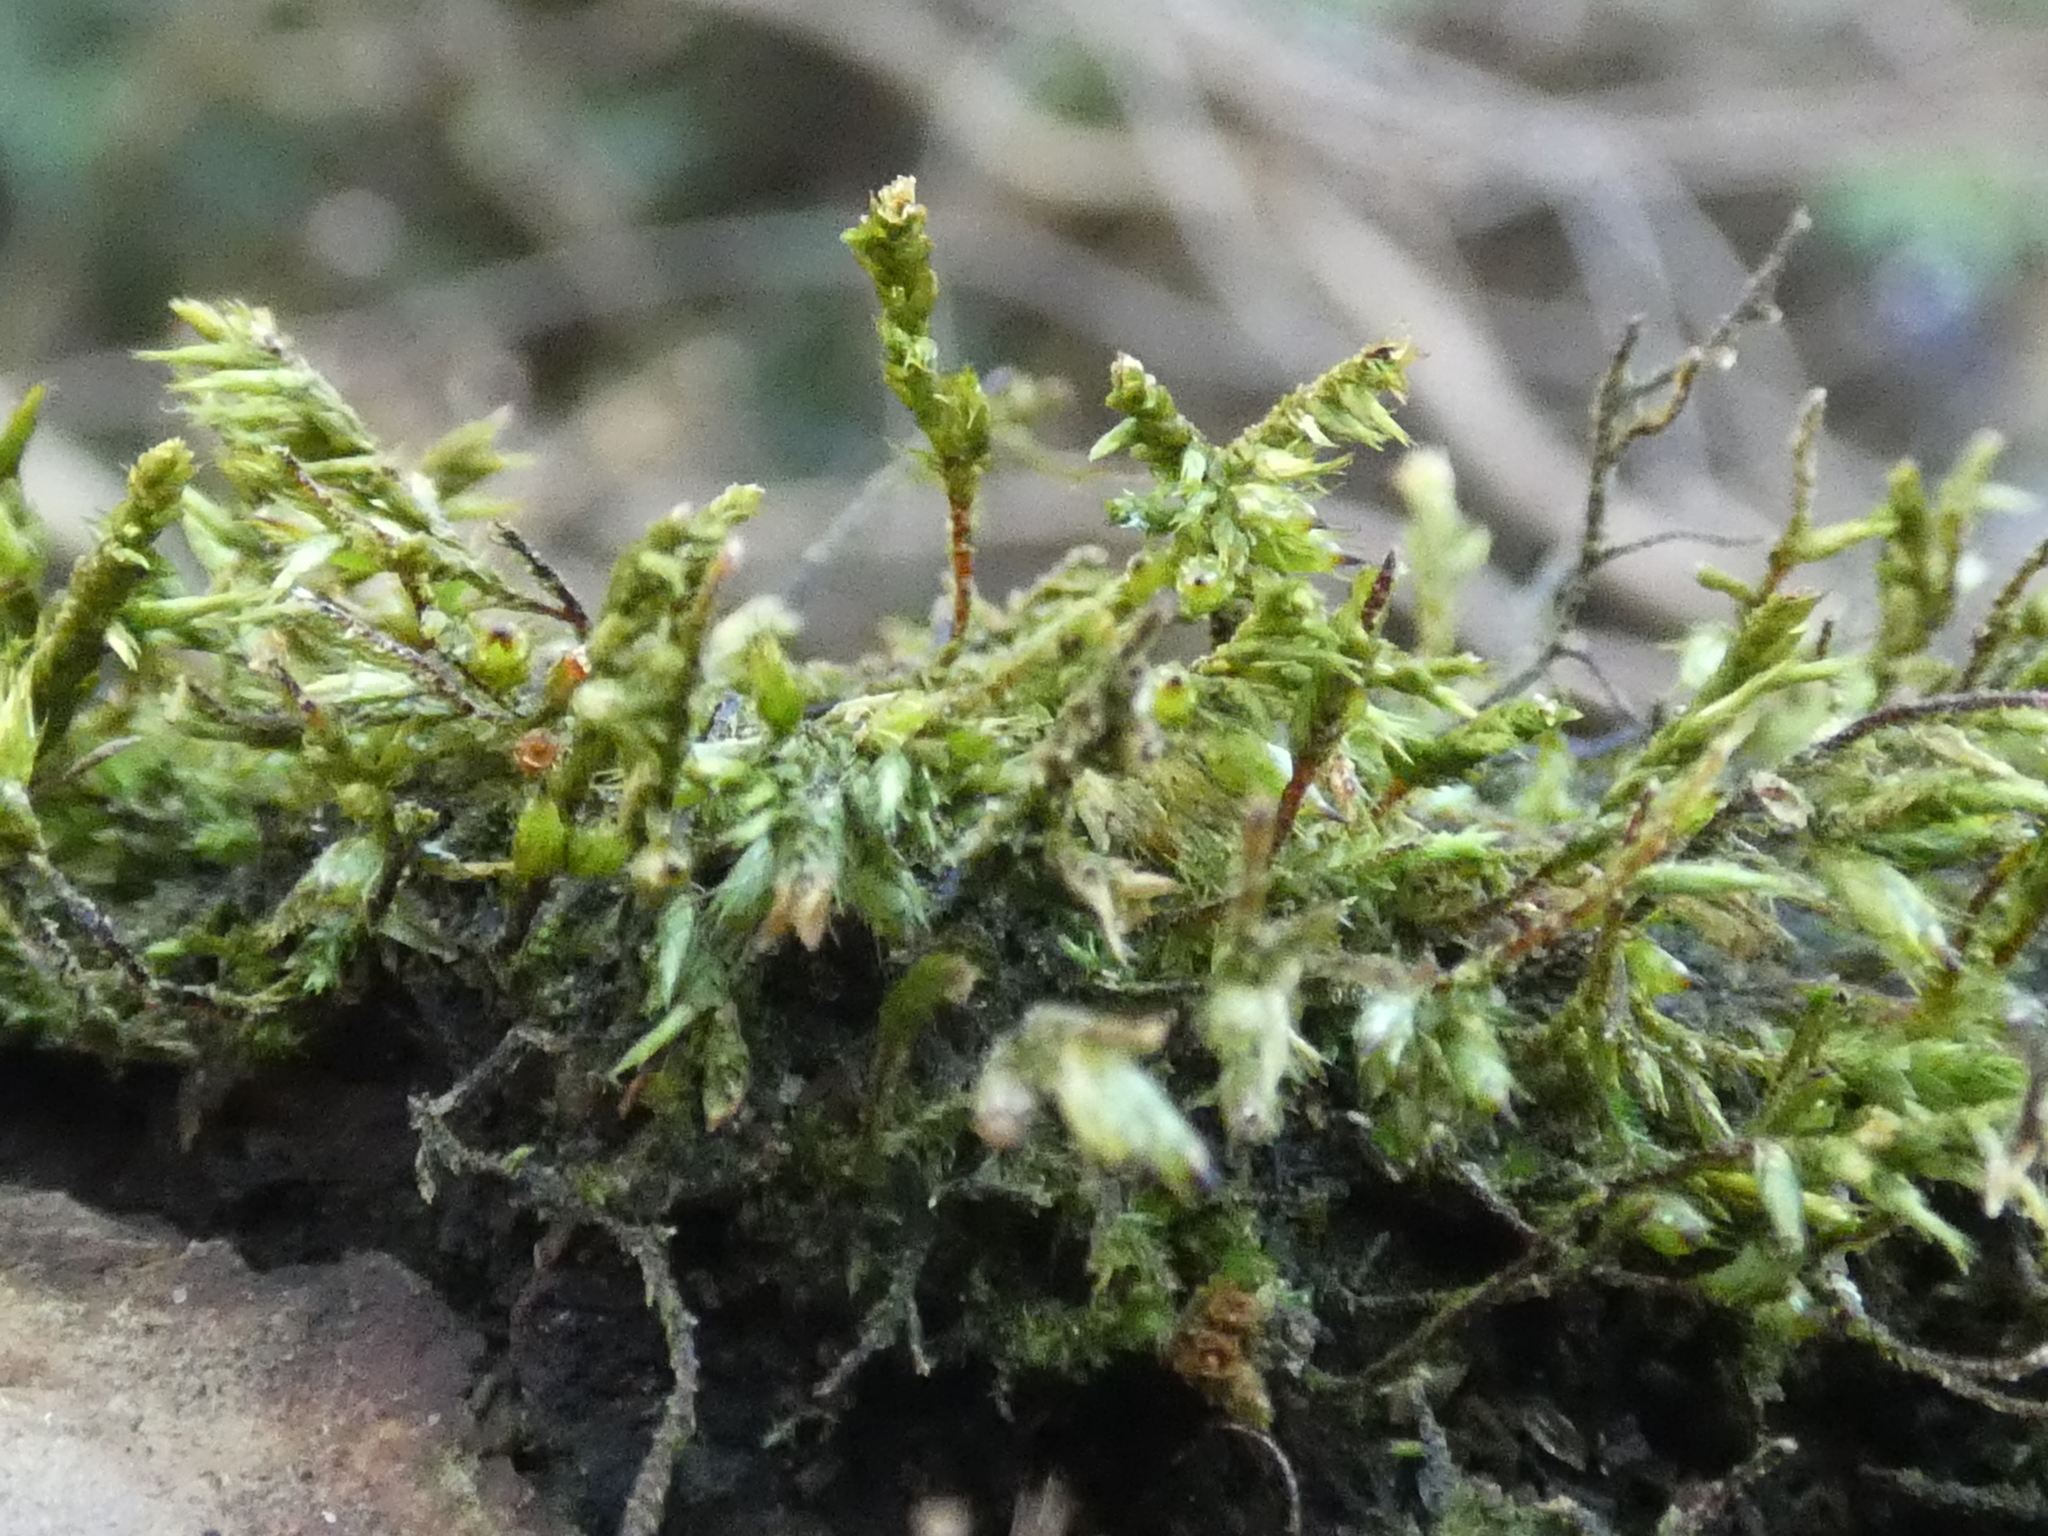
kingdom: Plantae
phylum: Bryophyta
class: Bryopsida
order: Hypnales
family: Cryphaeaceae
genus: Cryphaea
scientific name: Cryphaea heteromalla
